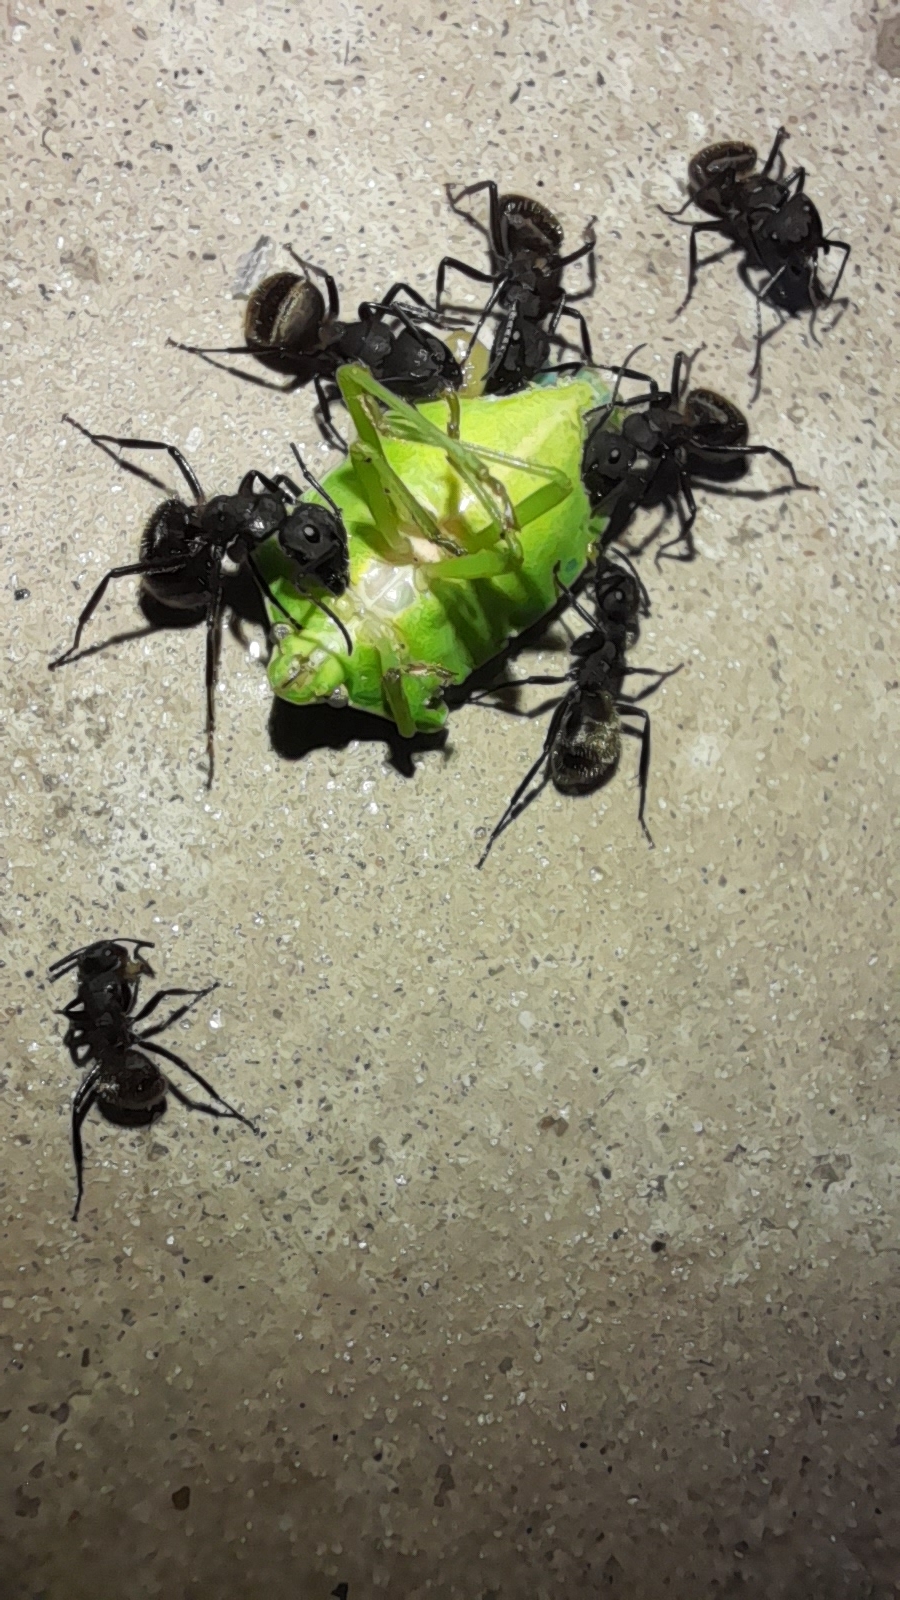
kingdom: Animalia
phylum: Arthropoda
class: Insecta
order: Hymenoptera
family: Formicidae
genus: Camponotus
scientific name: Camponotus mus
